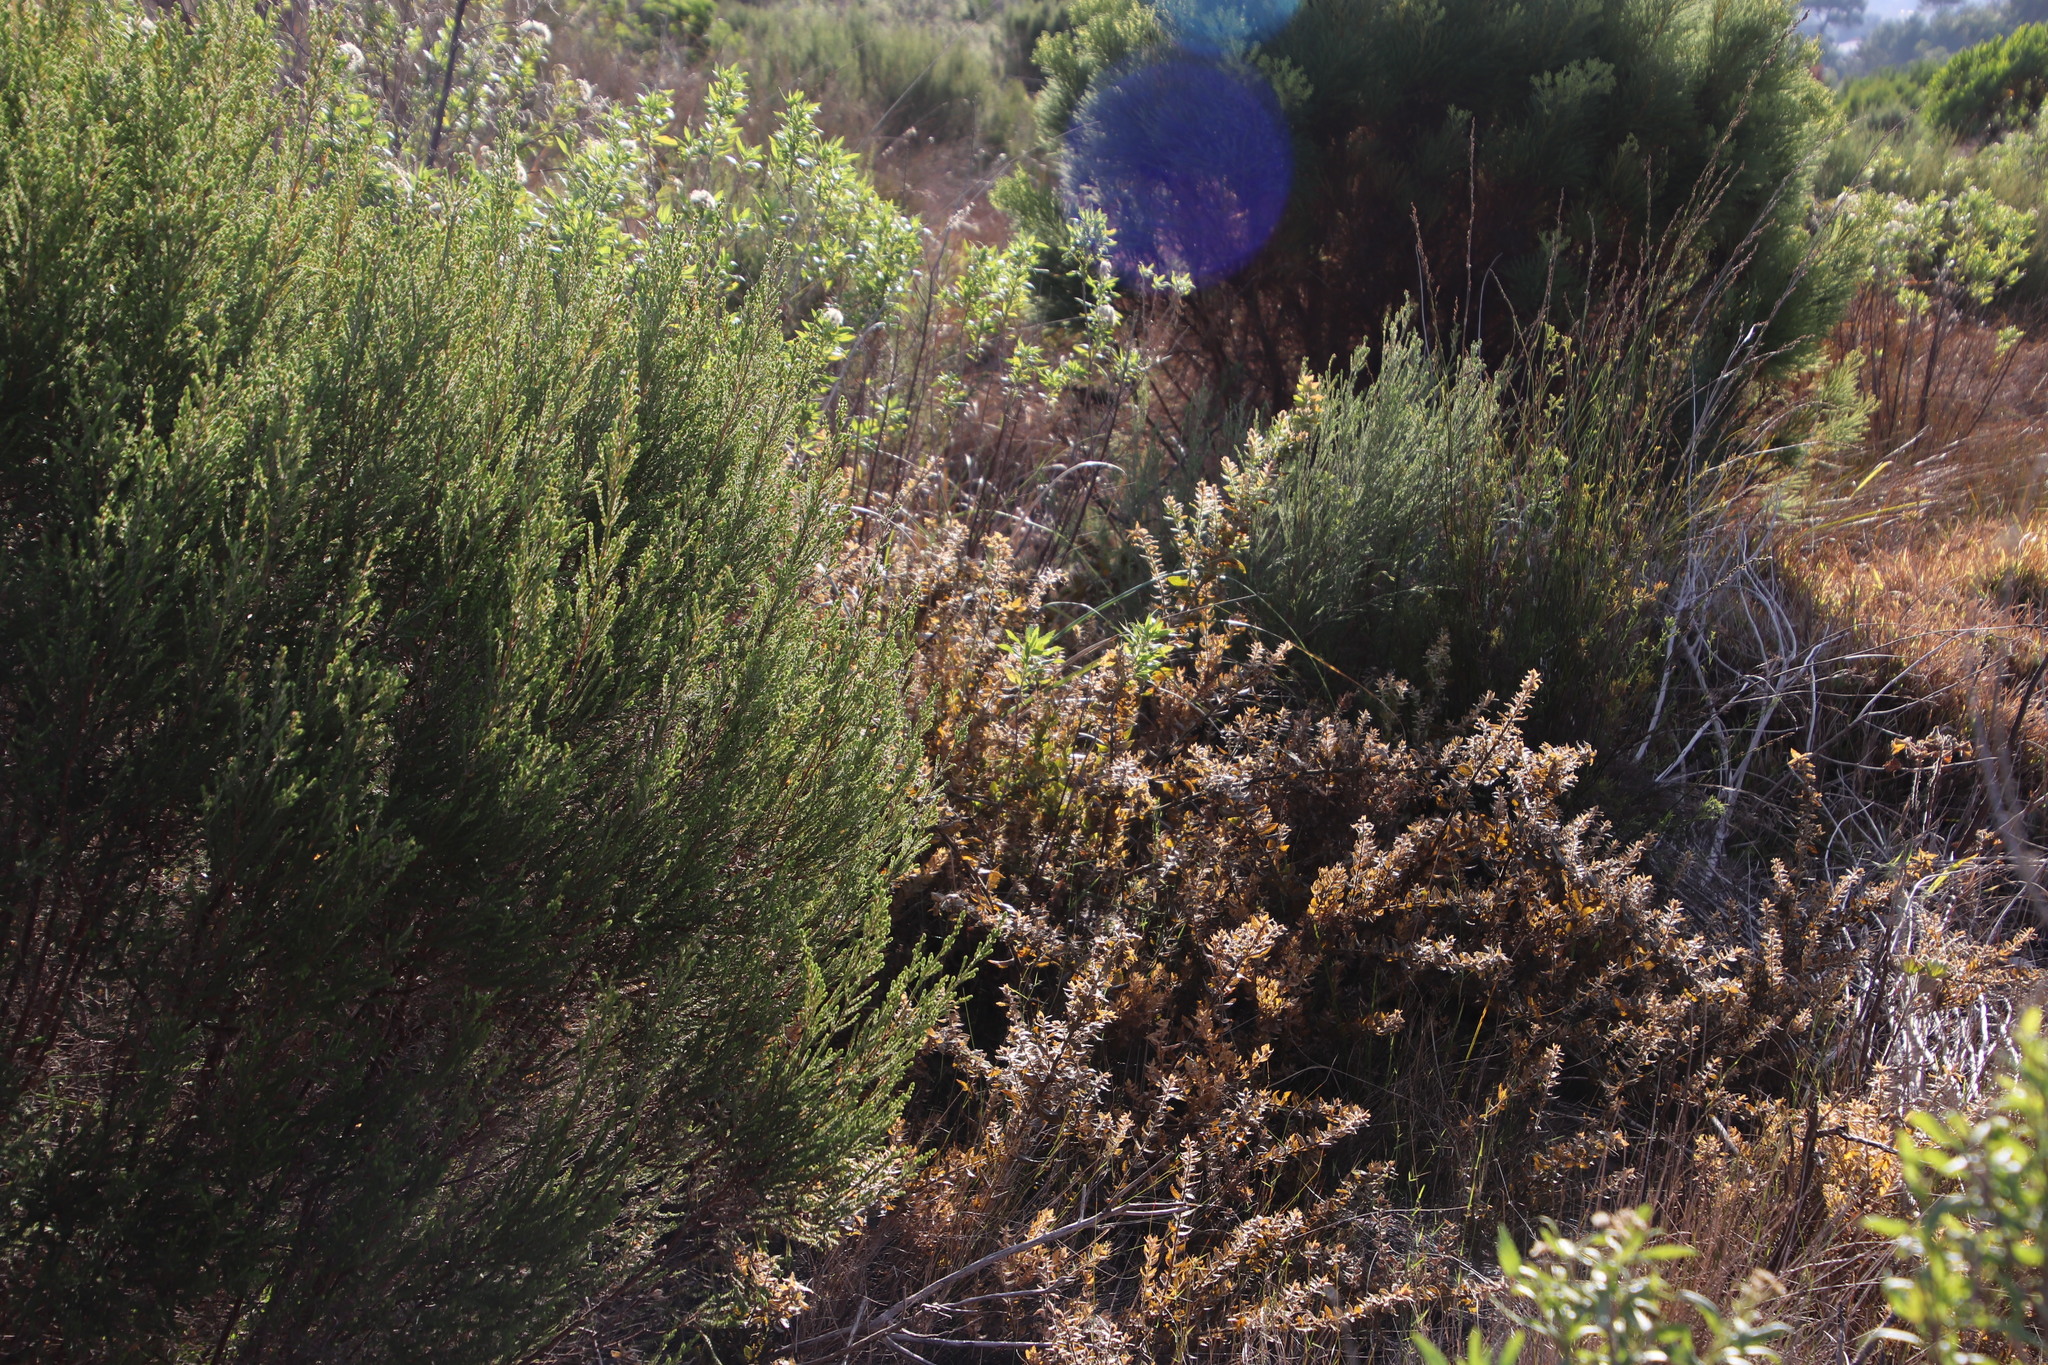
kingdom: Plantae
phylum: Tracheophyta
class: Magnoliopsida
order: Lamiales
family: Scrophulariaceae
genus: Oftia
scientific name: Oftia africana
